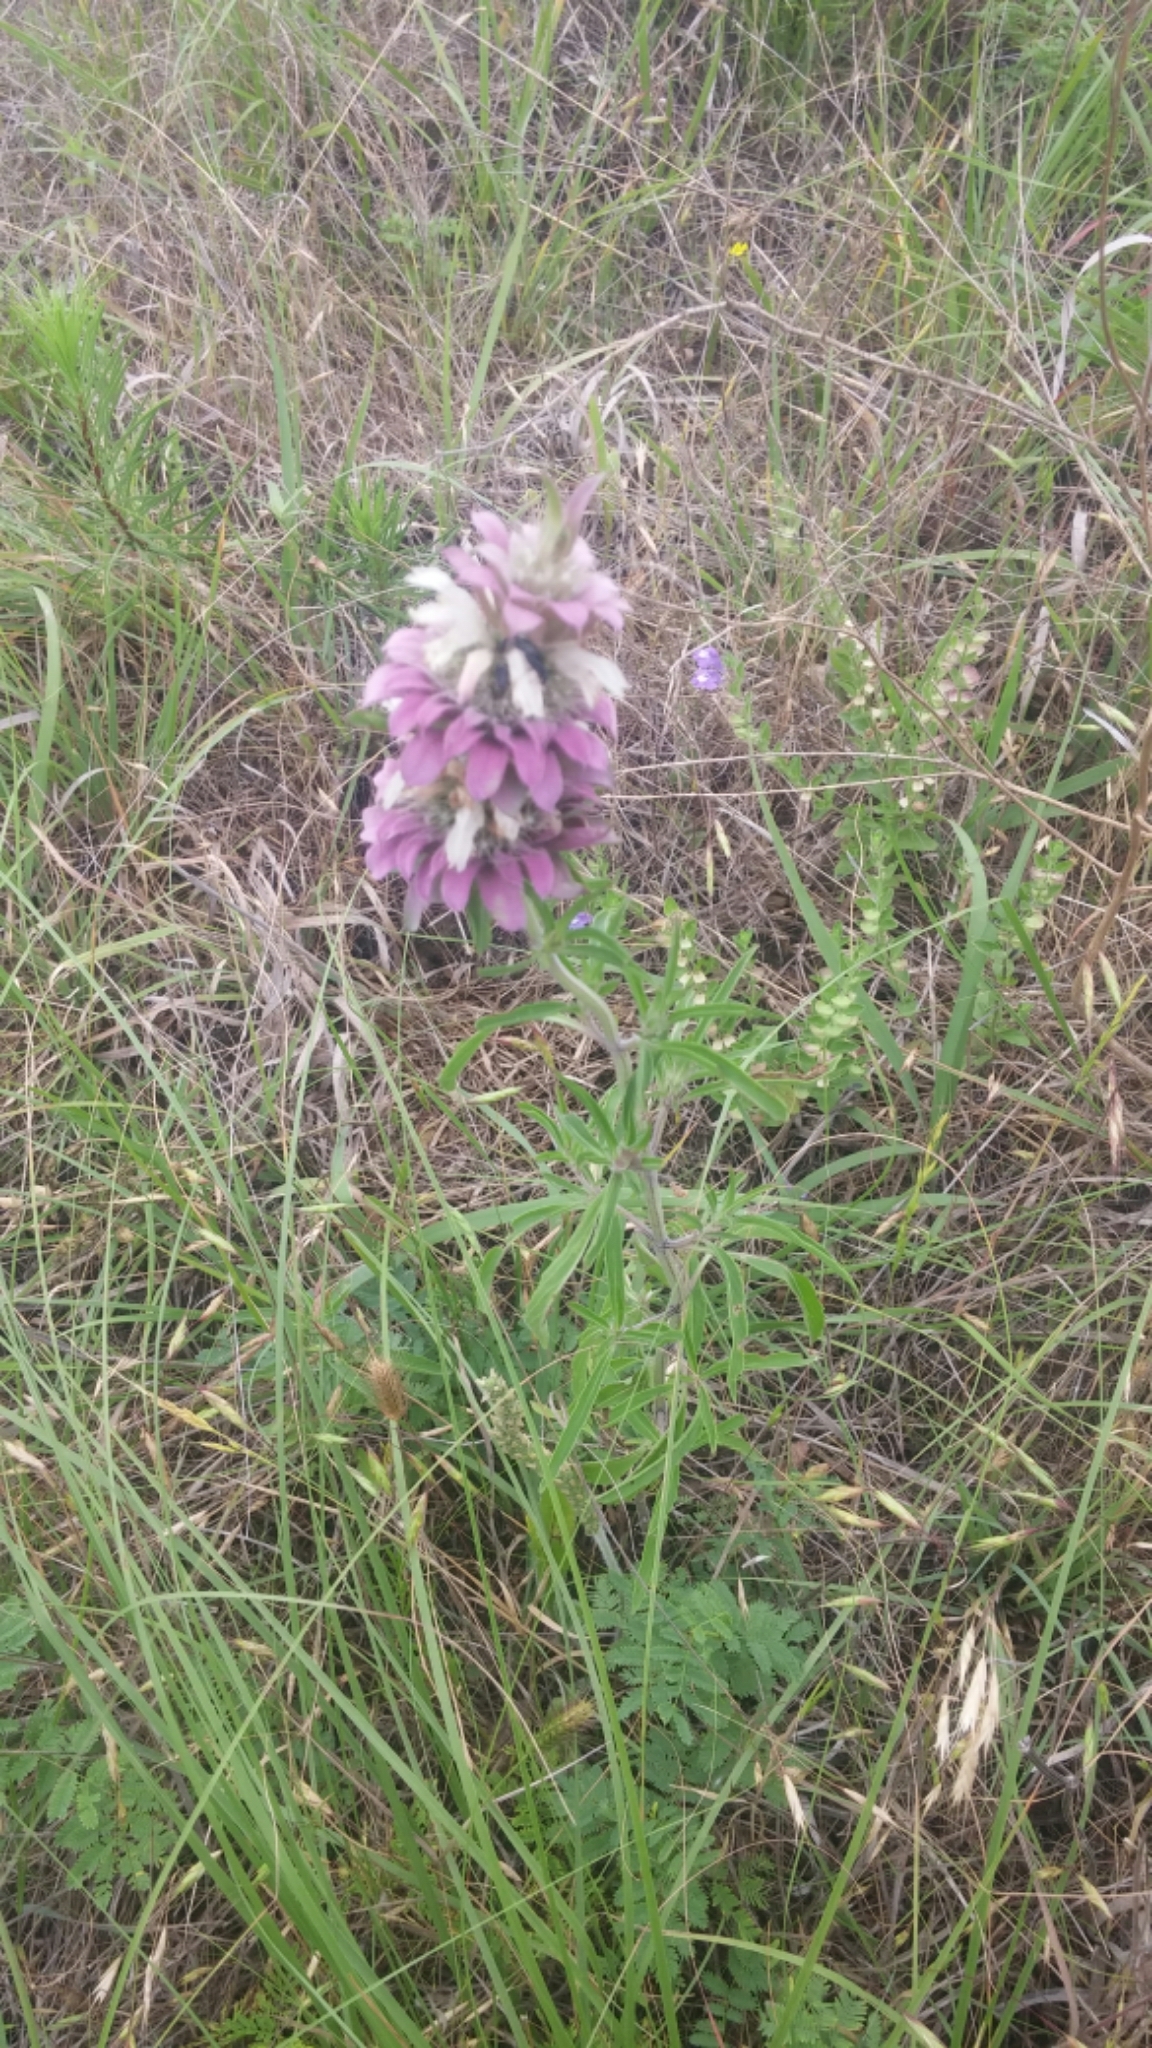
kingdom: Plantae
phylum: Tracheophyta
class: Magnoliopsida
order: Lamiales
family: Lamiaceae
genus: Monarda
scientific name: Monarda citriodora
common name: Lemon beebalm
